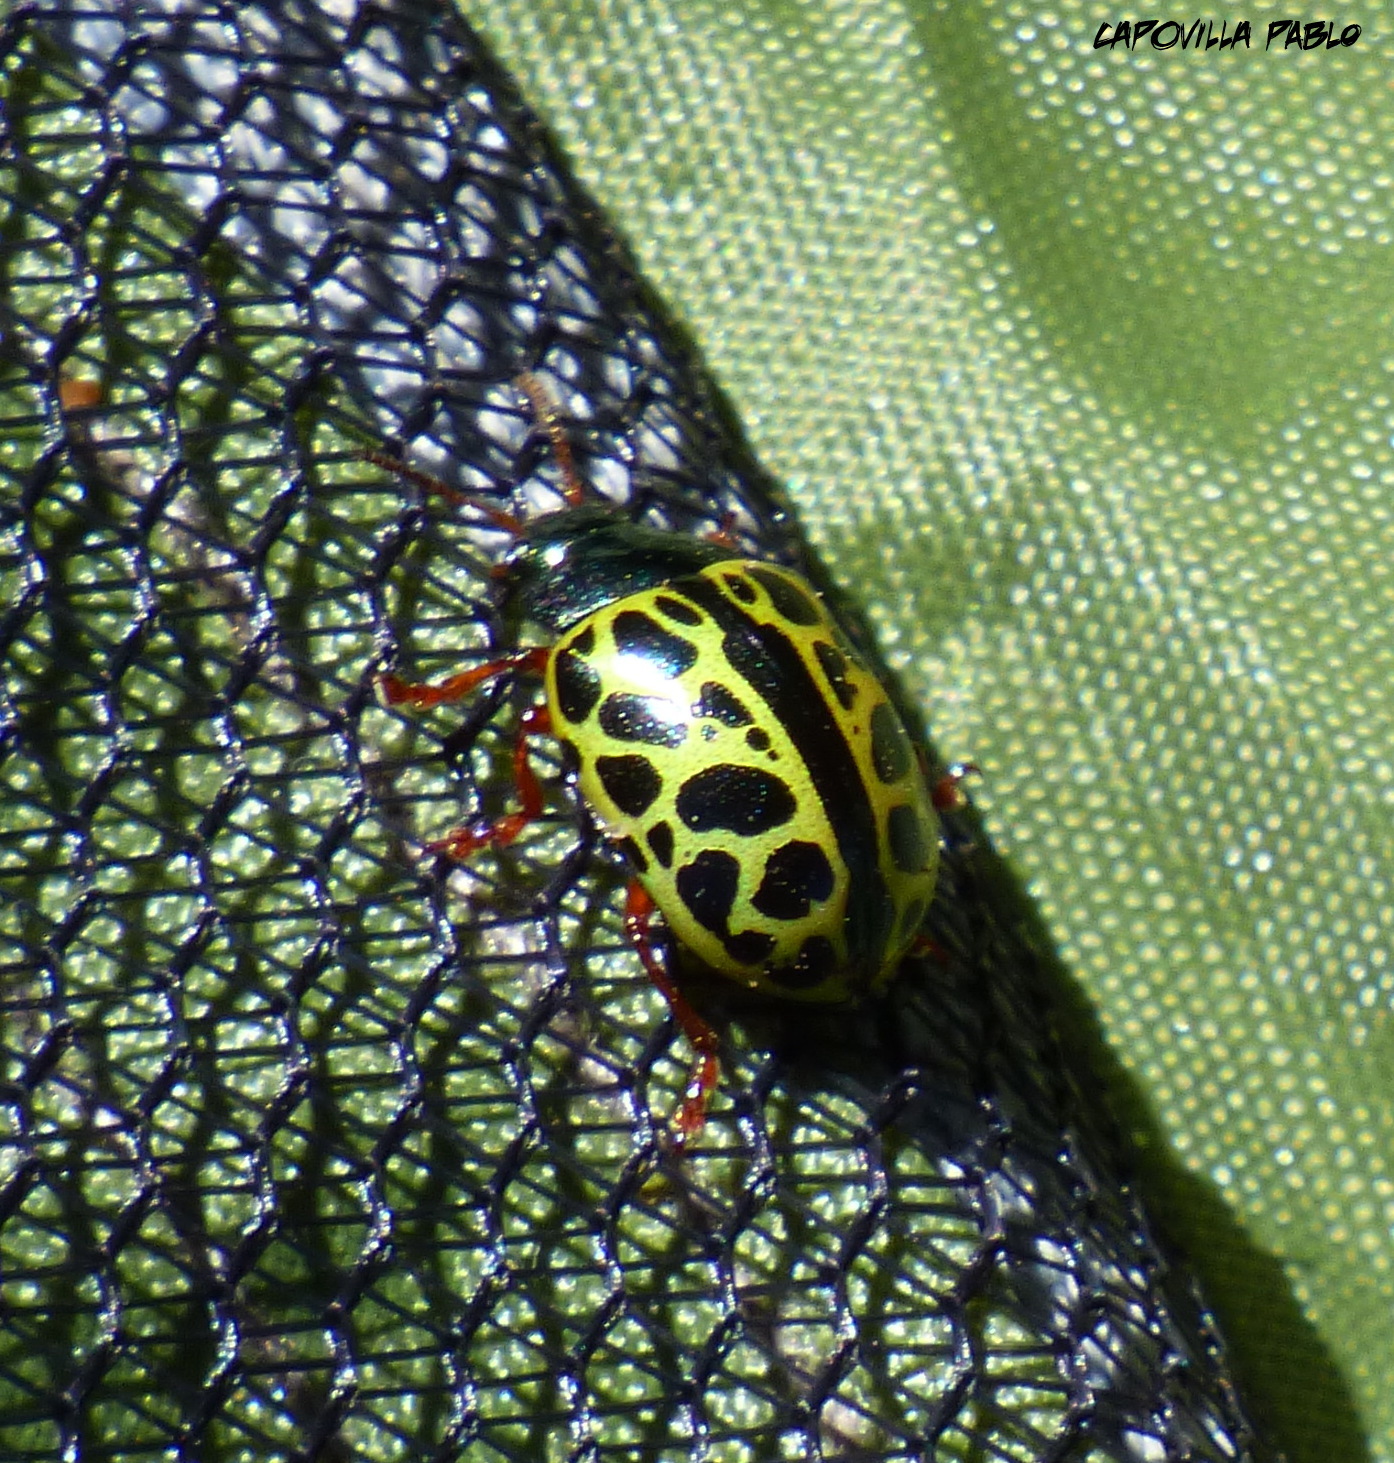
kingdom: Animalia
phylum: Arthropoda
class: Insecta
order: Coleoptera
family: Chrysomelidae
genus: Calligrapha
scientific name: Calligrapha polyspila
